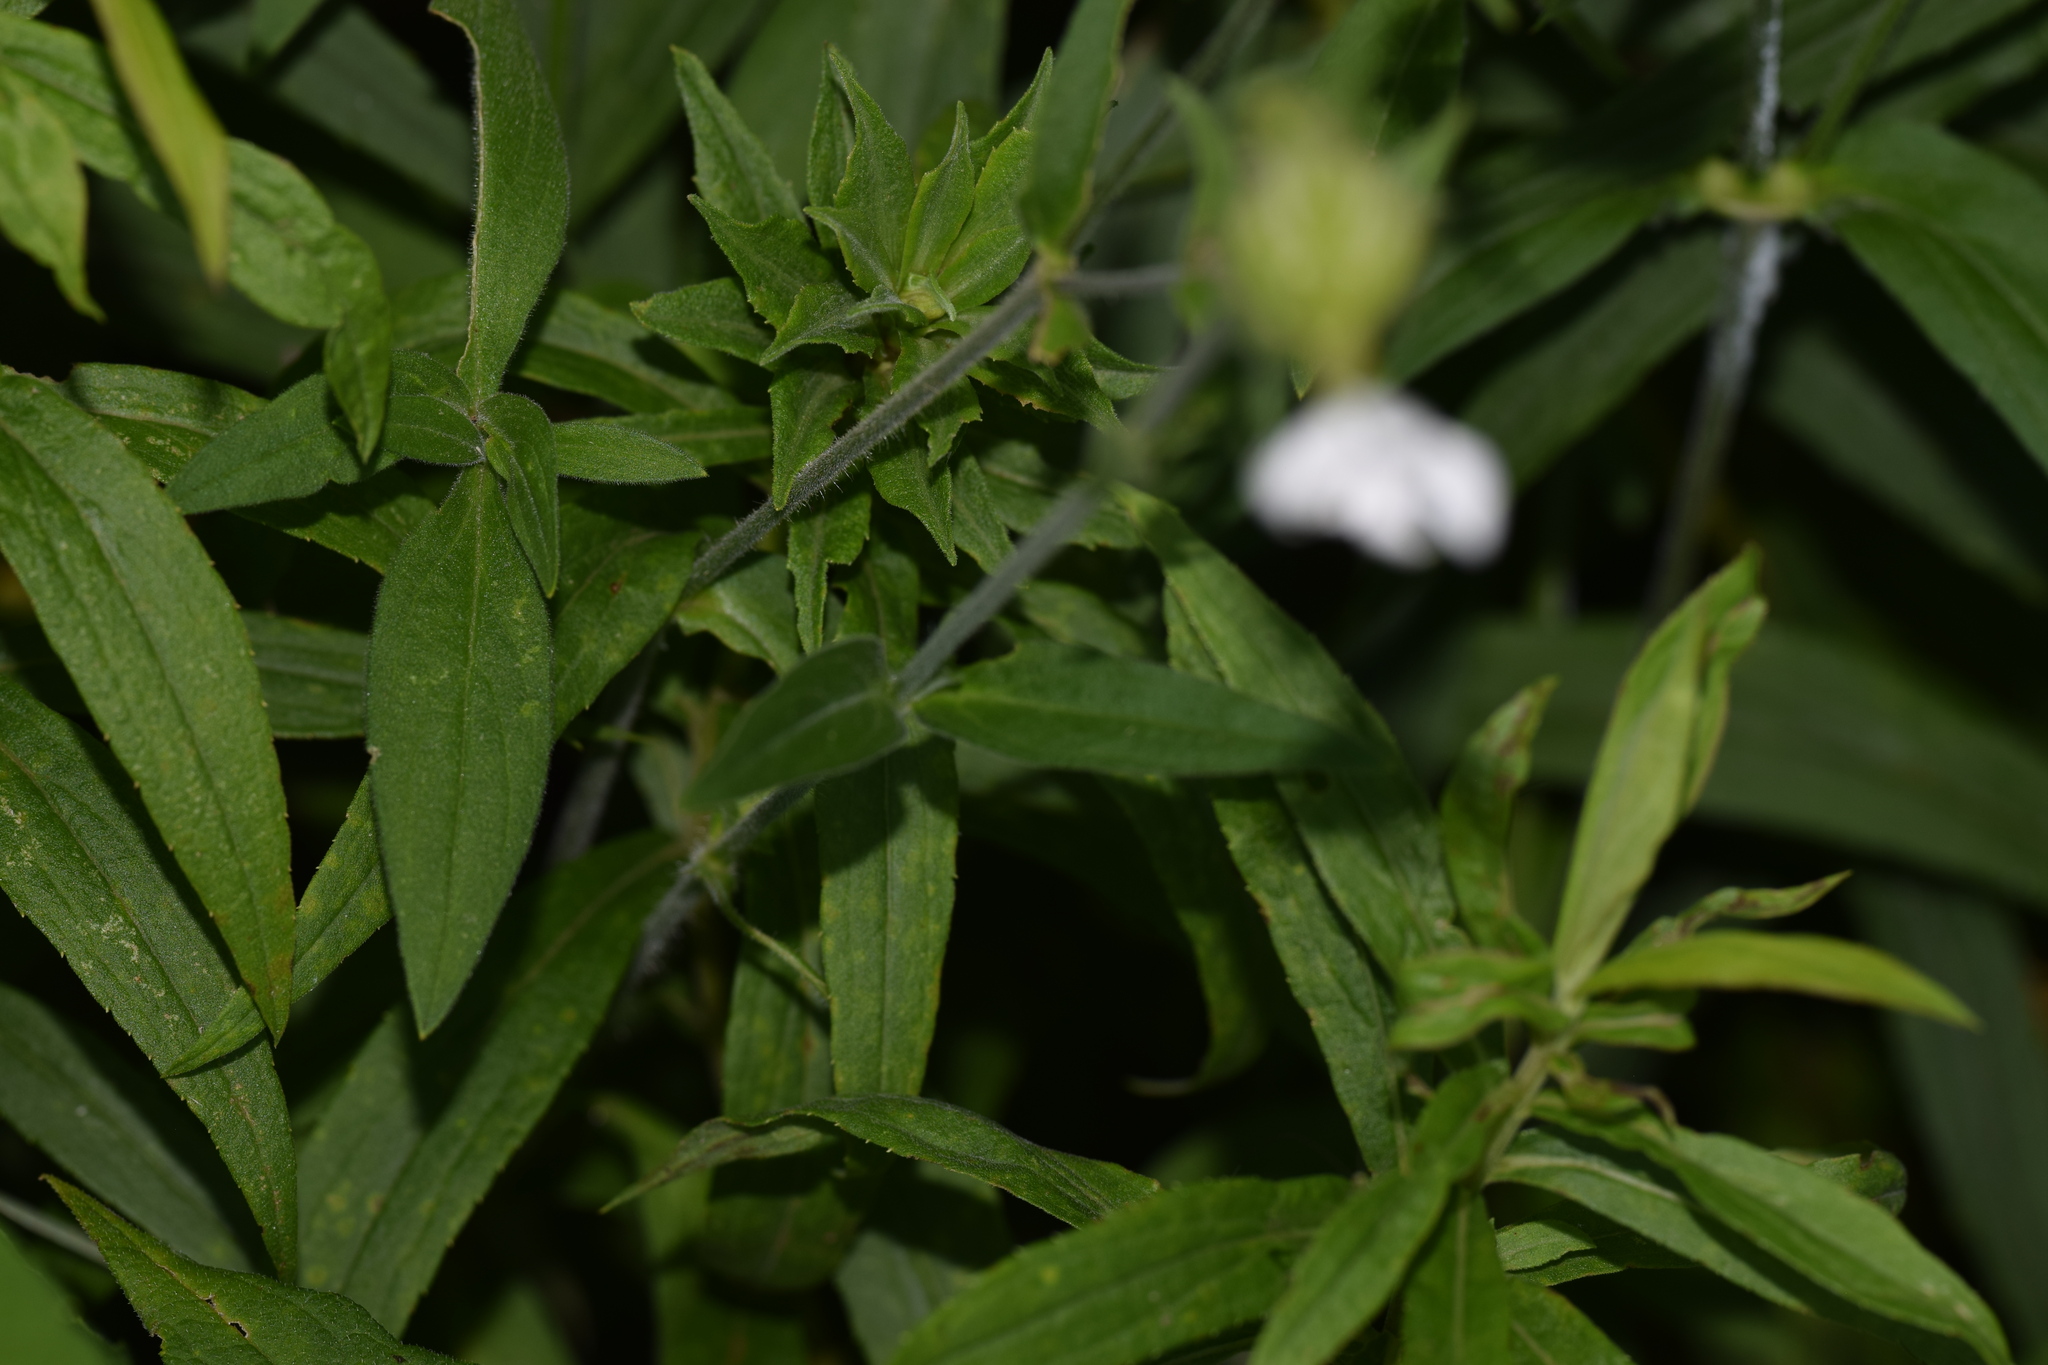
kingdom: Plantae
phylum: Tracheophyta
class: Magnoliopsida
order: Caryophyllales
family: Caryophyllaceae
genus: Silene
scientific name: Silene latifolia
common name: White campion
